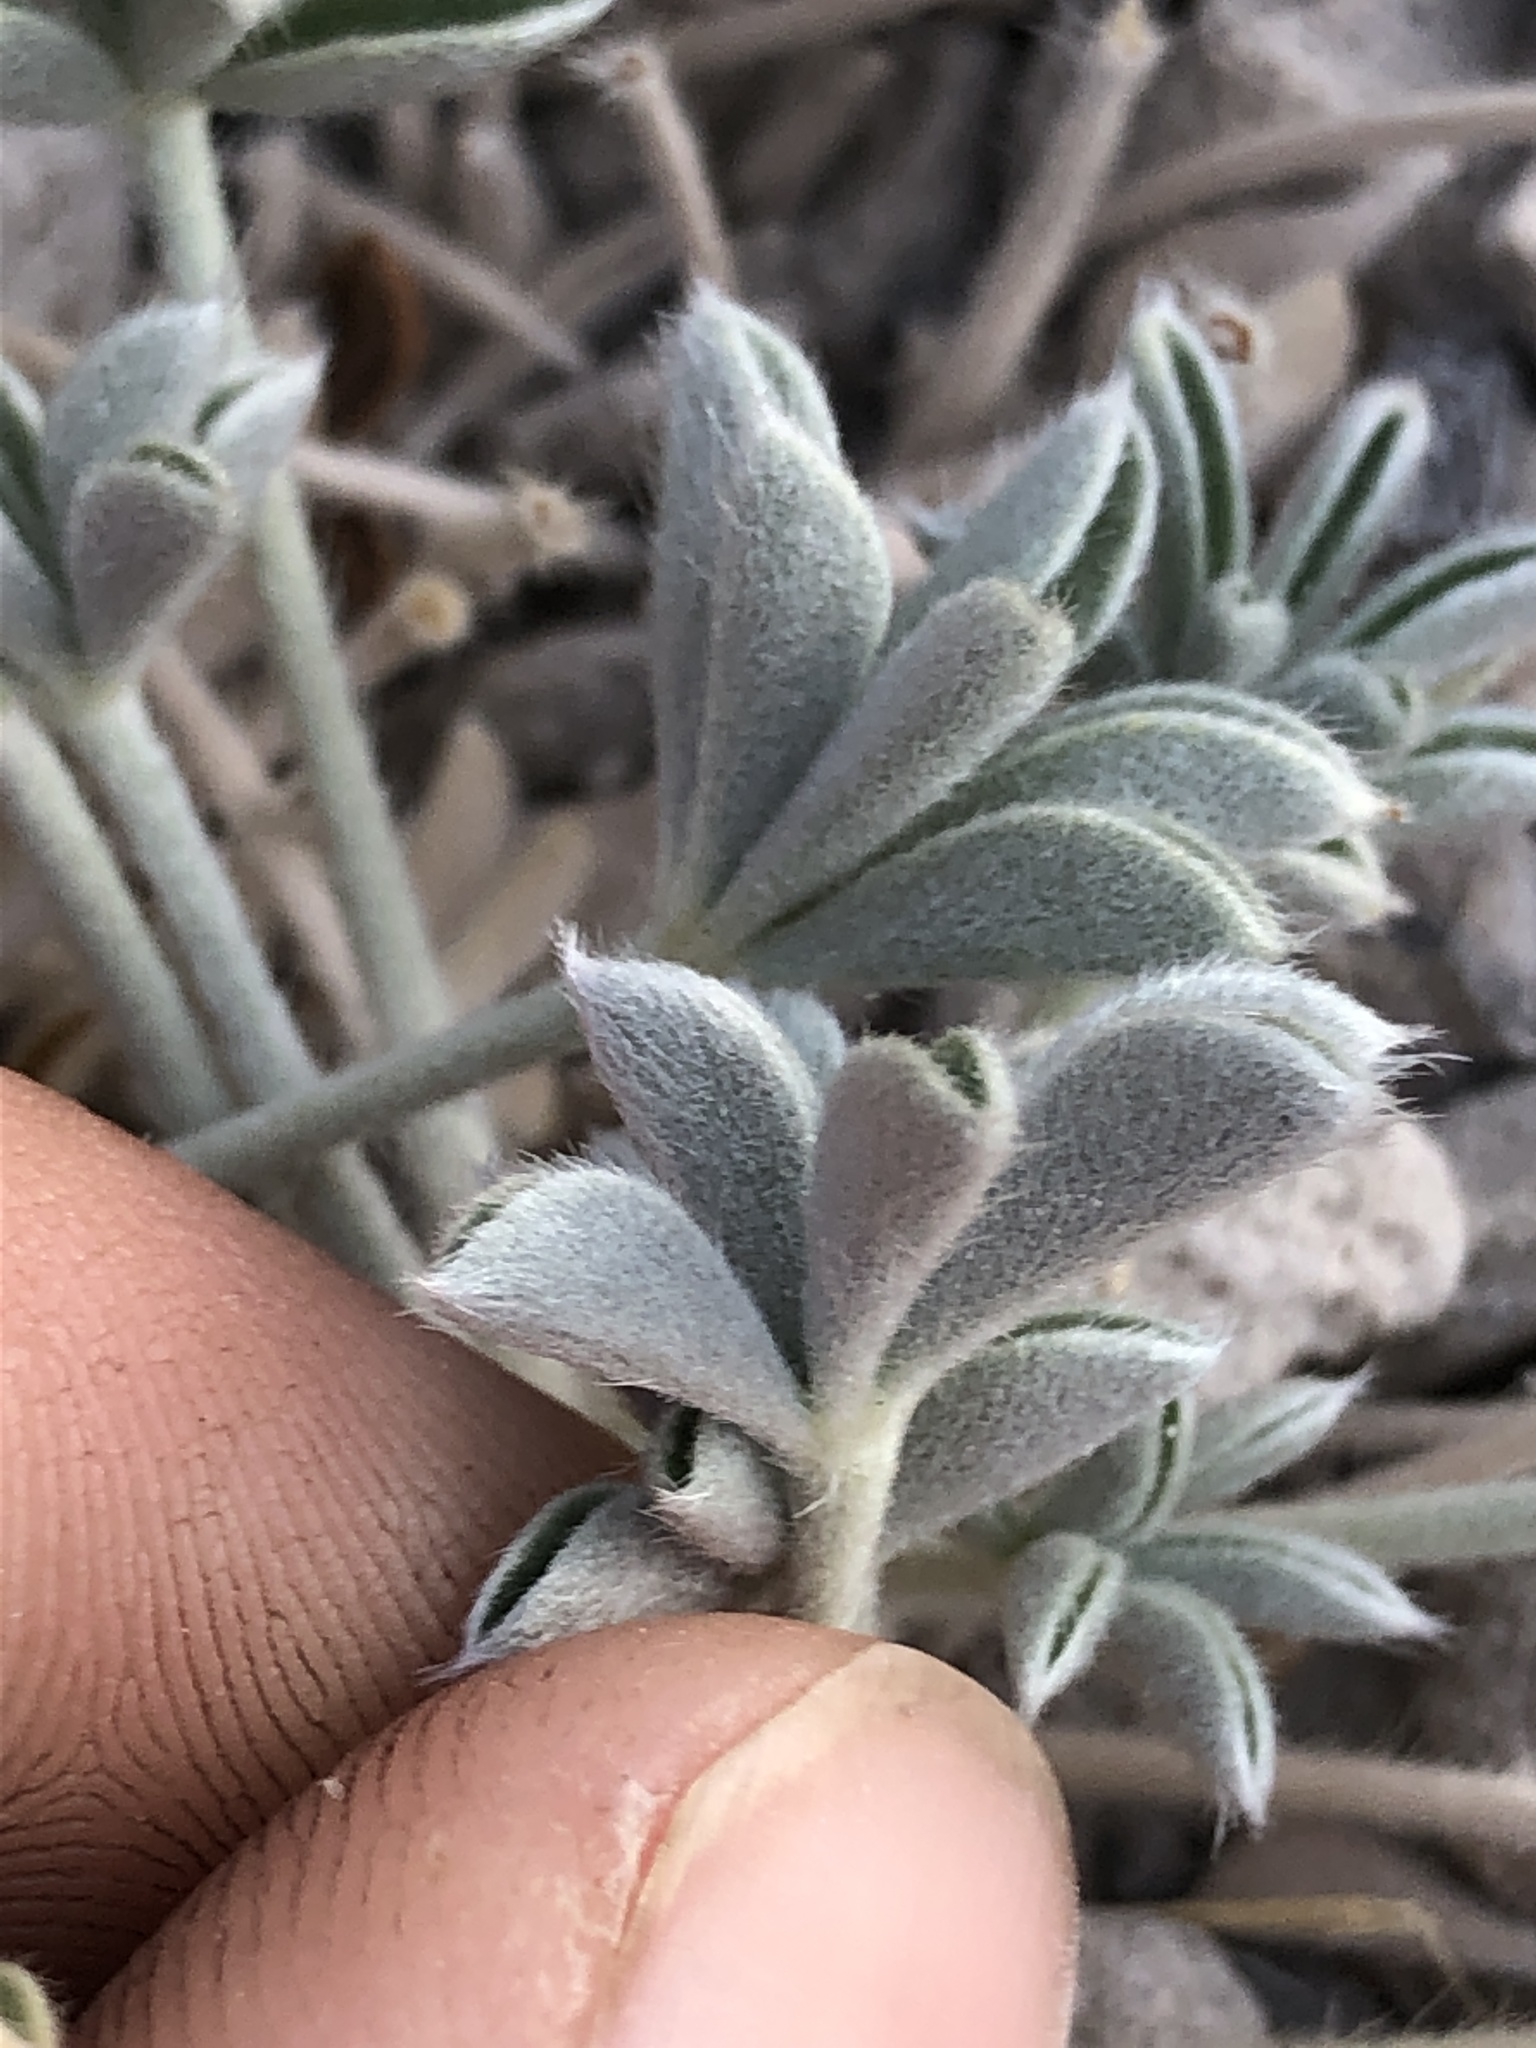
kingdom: Plantae
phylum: Tracheophyta
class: Magnoliopsida
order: Fabales
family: Fabaceae
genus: Lupinus
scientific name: Lupinus duranii
